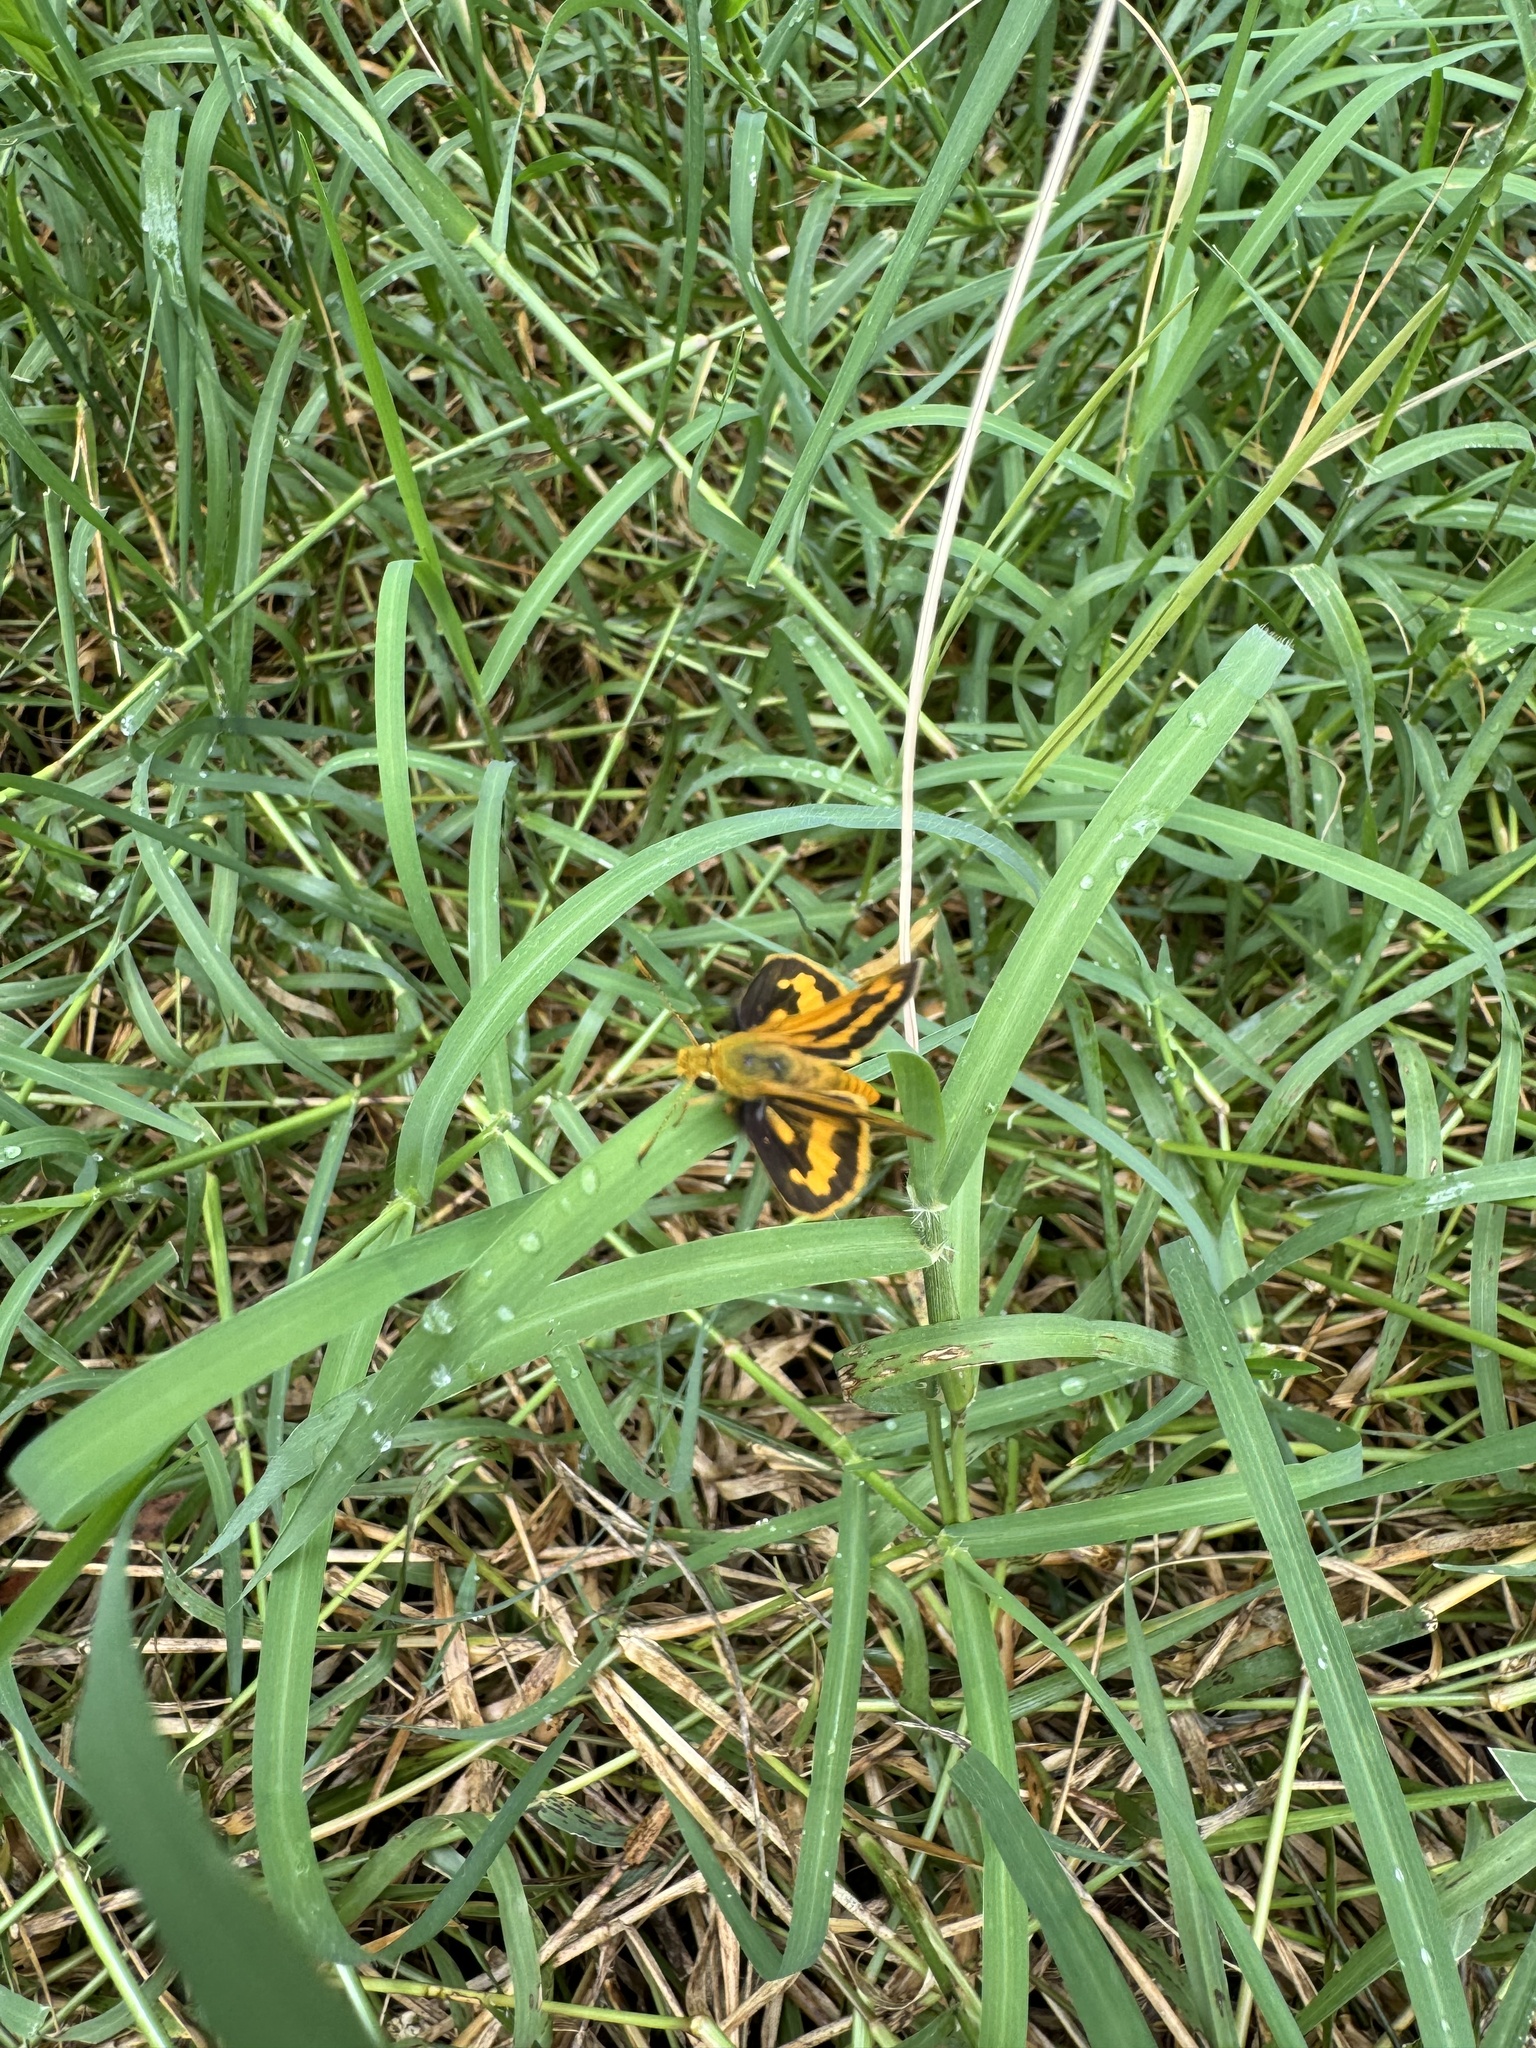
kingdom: Animalia
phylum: Arthropoda
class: Insecta
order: Lepidoptera
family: Hesperiidae
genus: Ocybadistes
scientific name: Ocybadistes walkeri
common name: Yellow-banded dart
